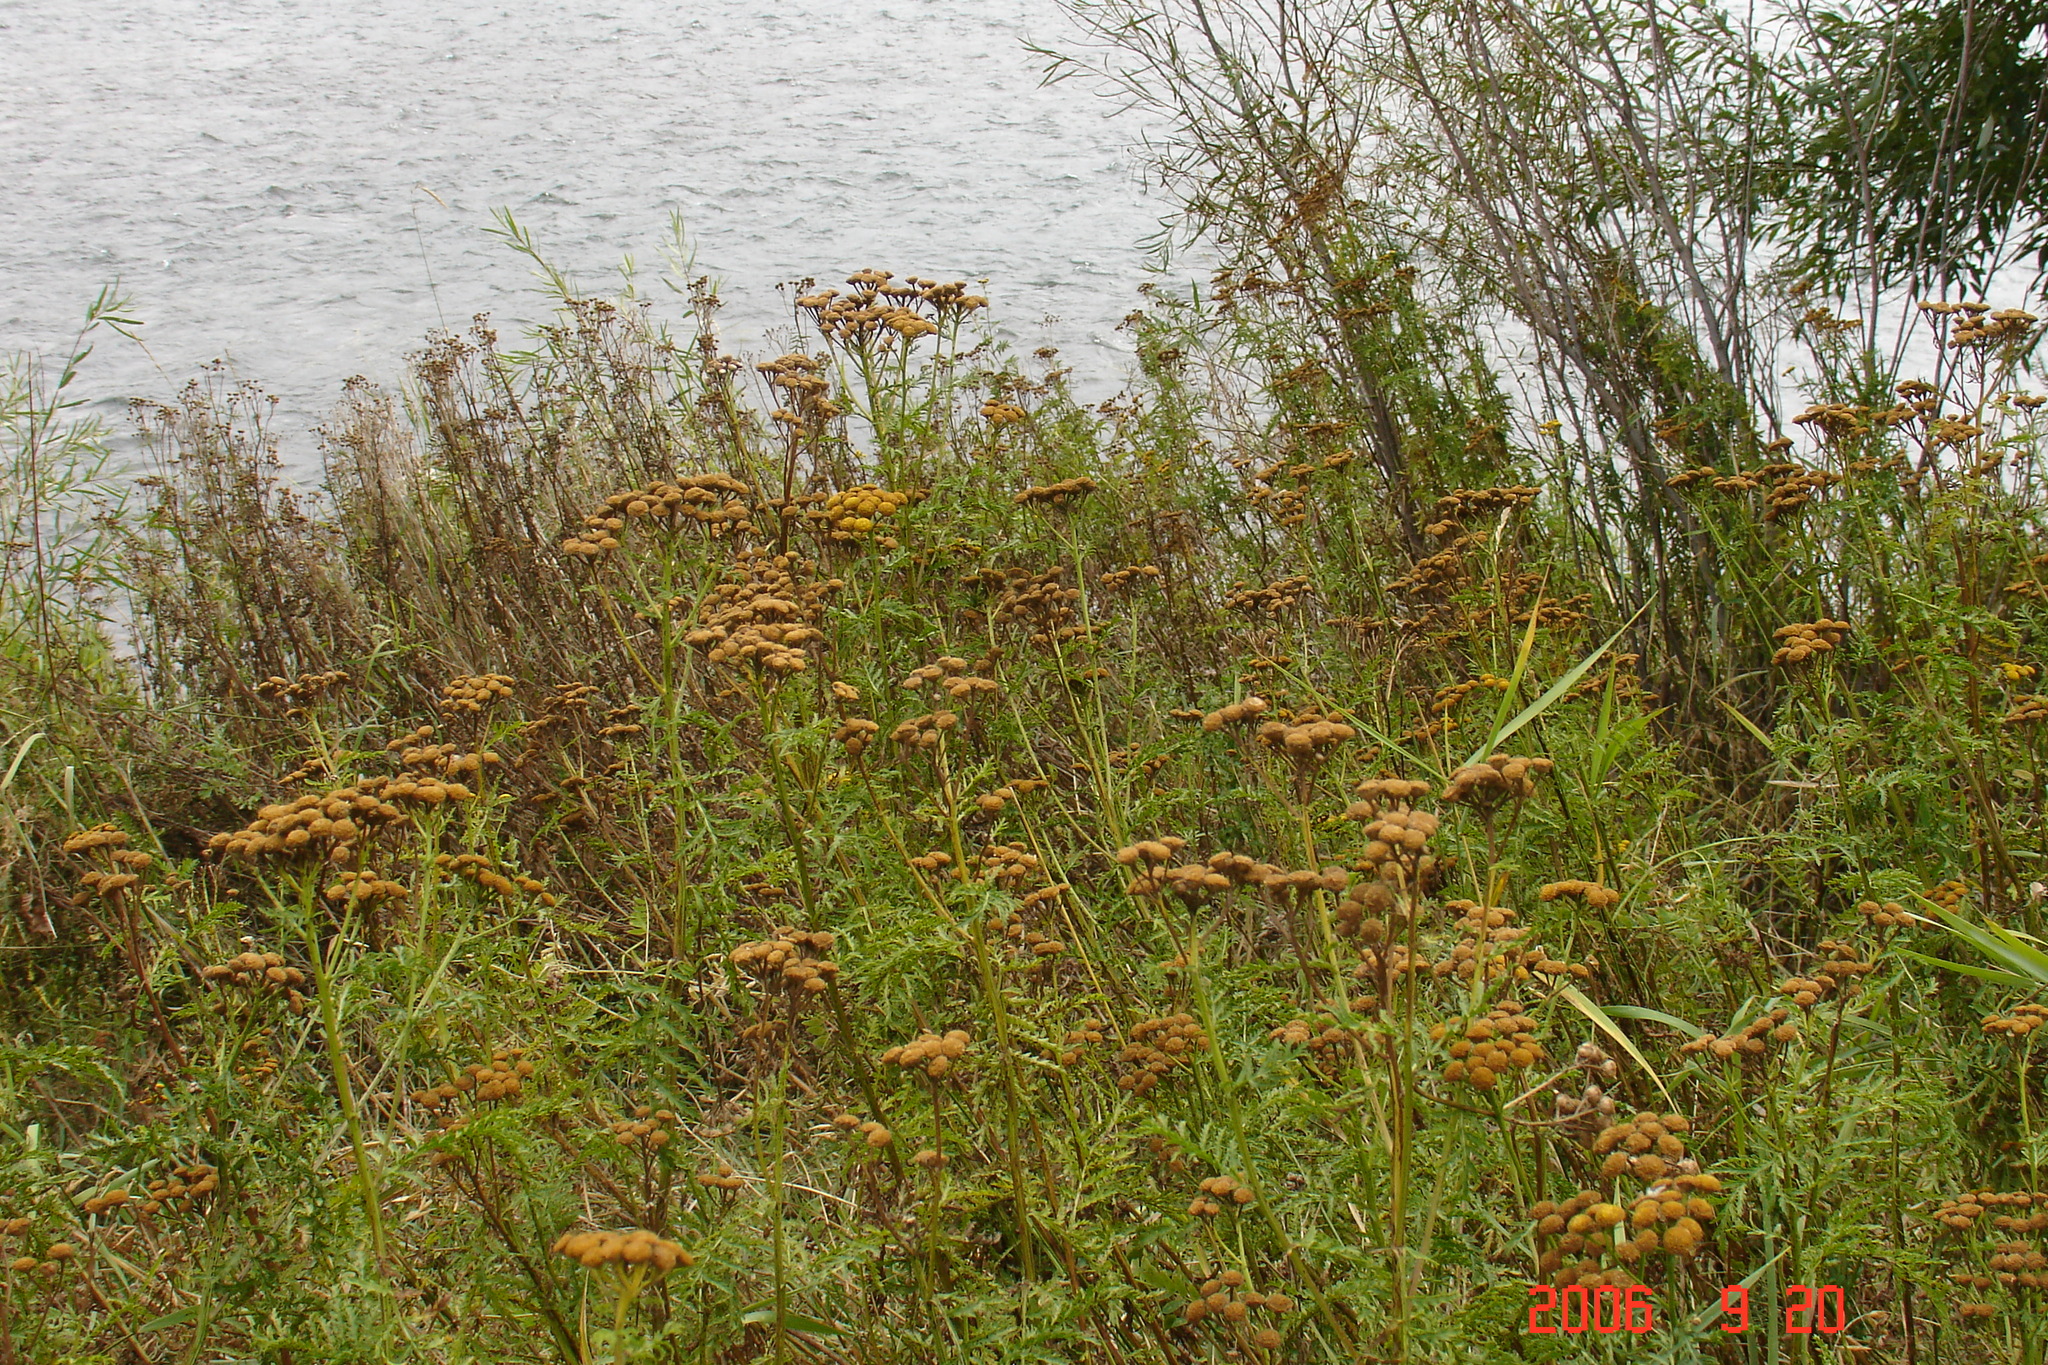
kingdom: Plantae
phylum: Tracheophyta
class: Magnoliopsida
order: Asterales
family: Asteraceae
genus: Tanacetum
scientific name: Tanacetum vulgare
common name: Common tansy
